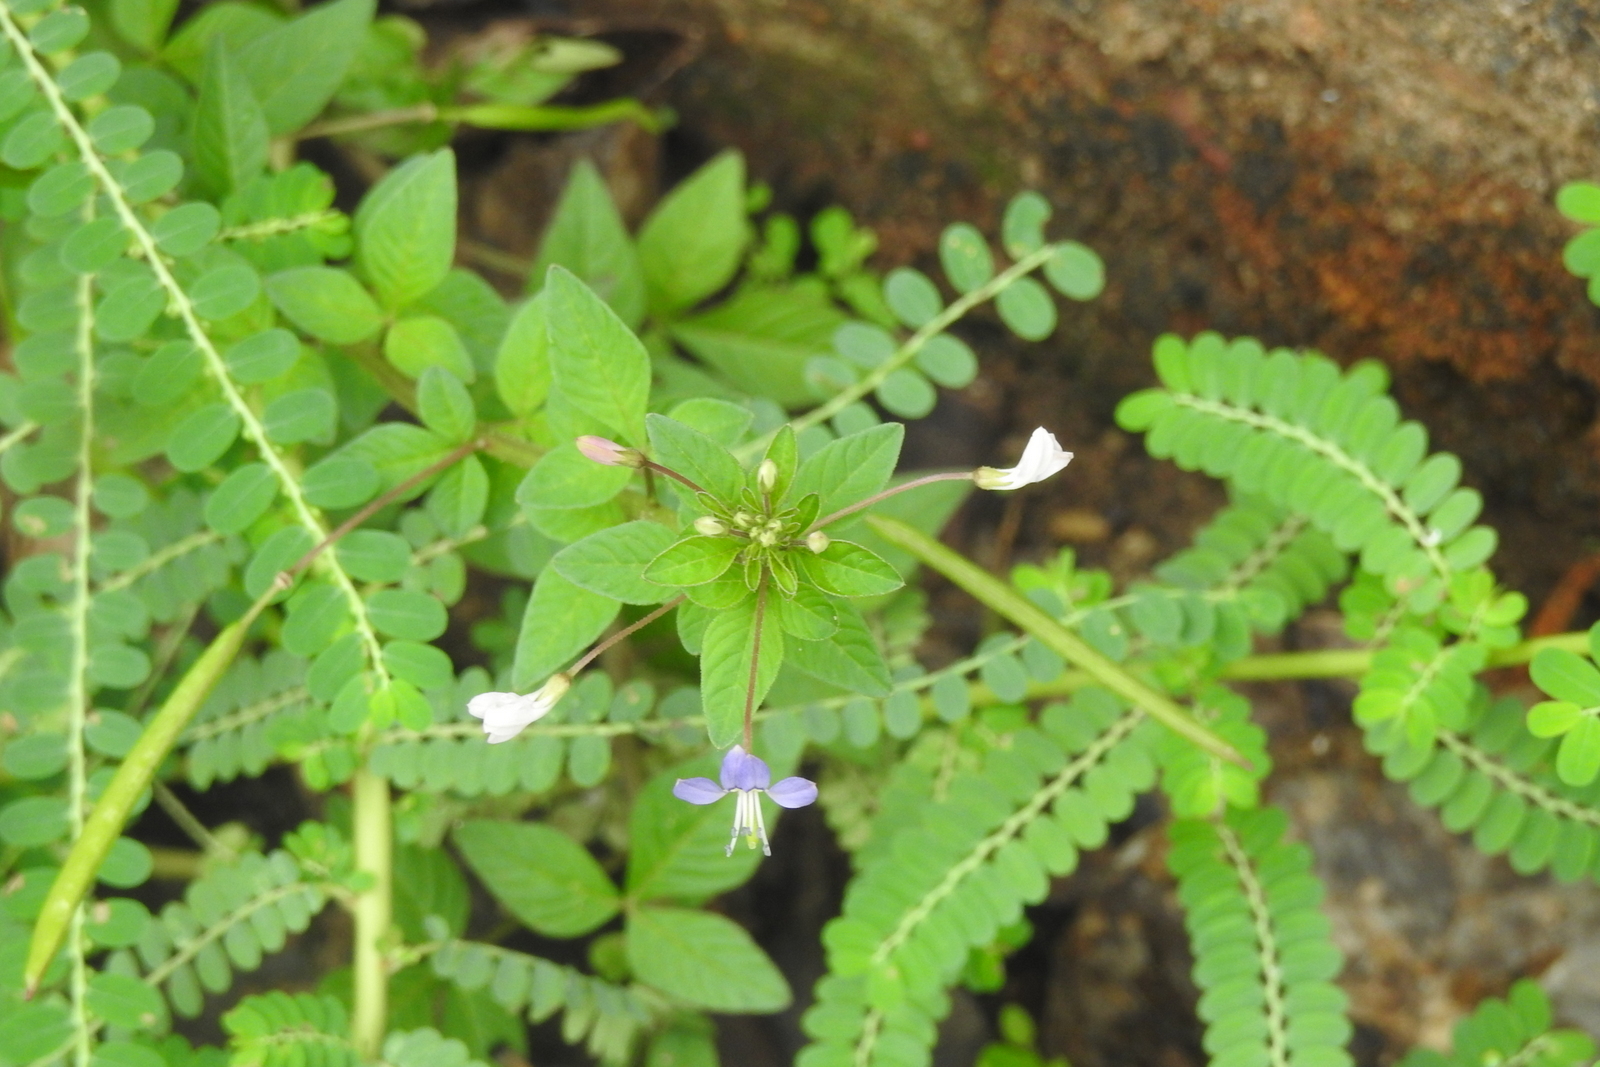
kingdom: Plantae
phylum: Tracheophyta
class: Magnoliopsida
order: Brassicales
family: Cleomaceae
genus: Sieruela
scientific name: Sieruela rutidosperma
